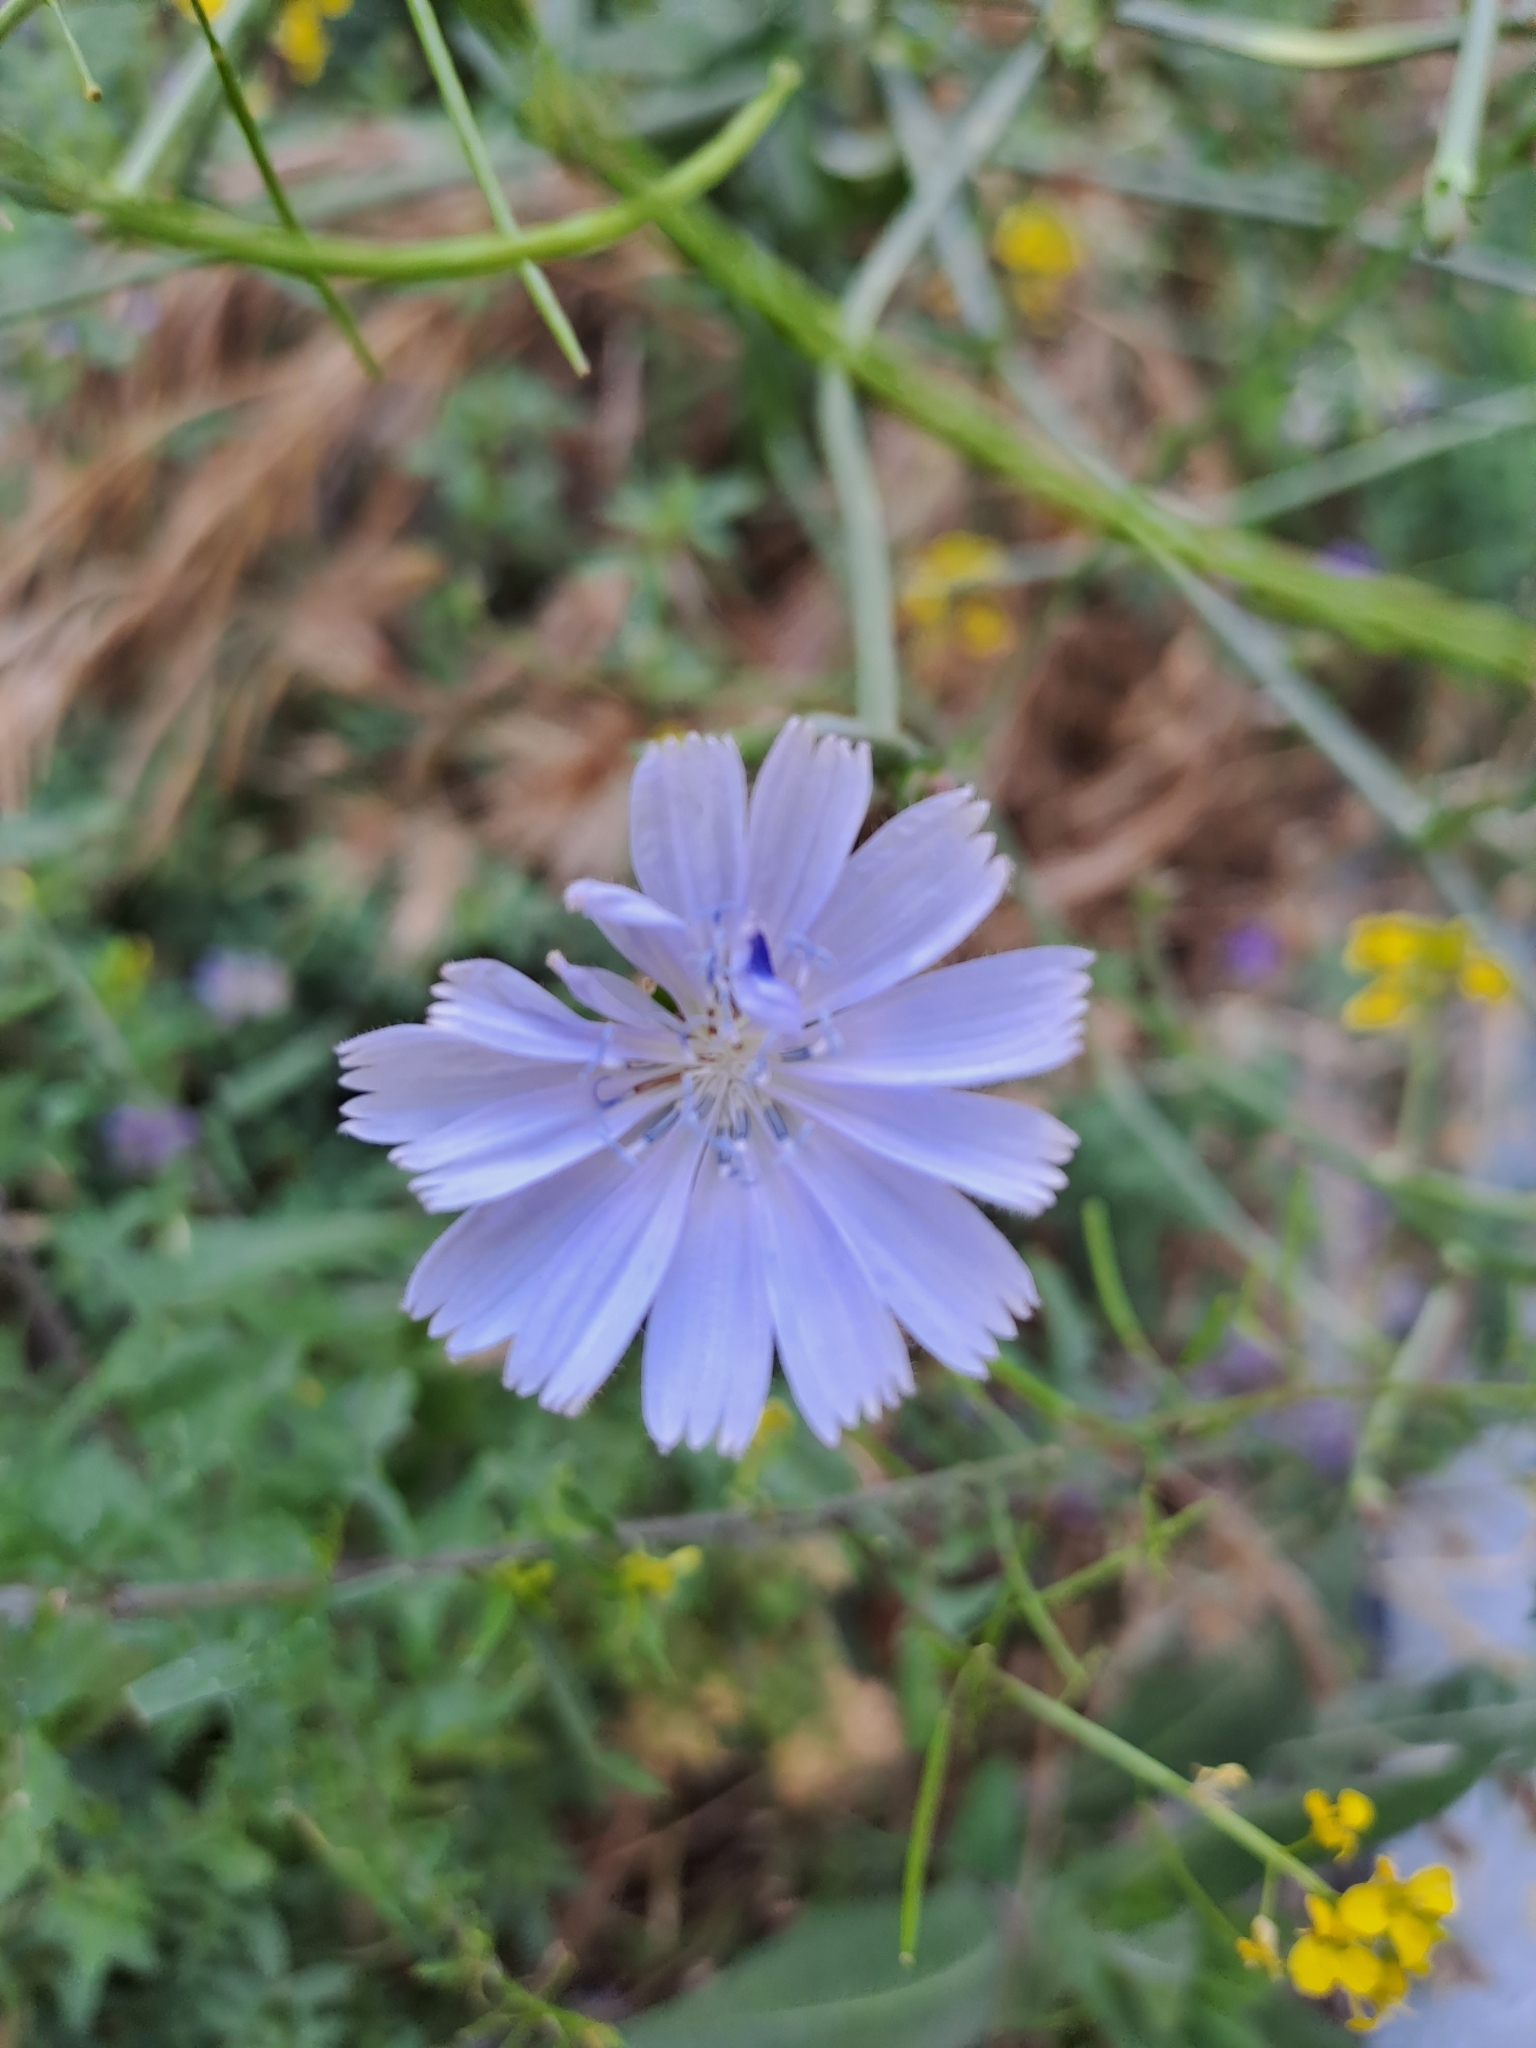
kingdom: Plantae
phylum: Tracheophyta
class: Magnoliopsida
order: Asterales
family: Asteraceae
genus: Cichorium
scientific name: Cichorium intybus
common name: Chicory
